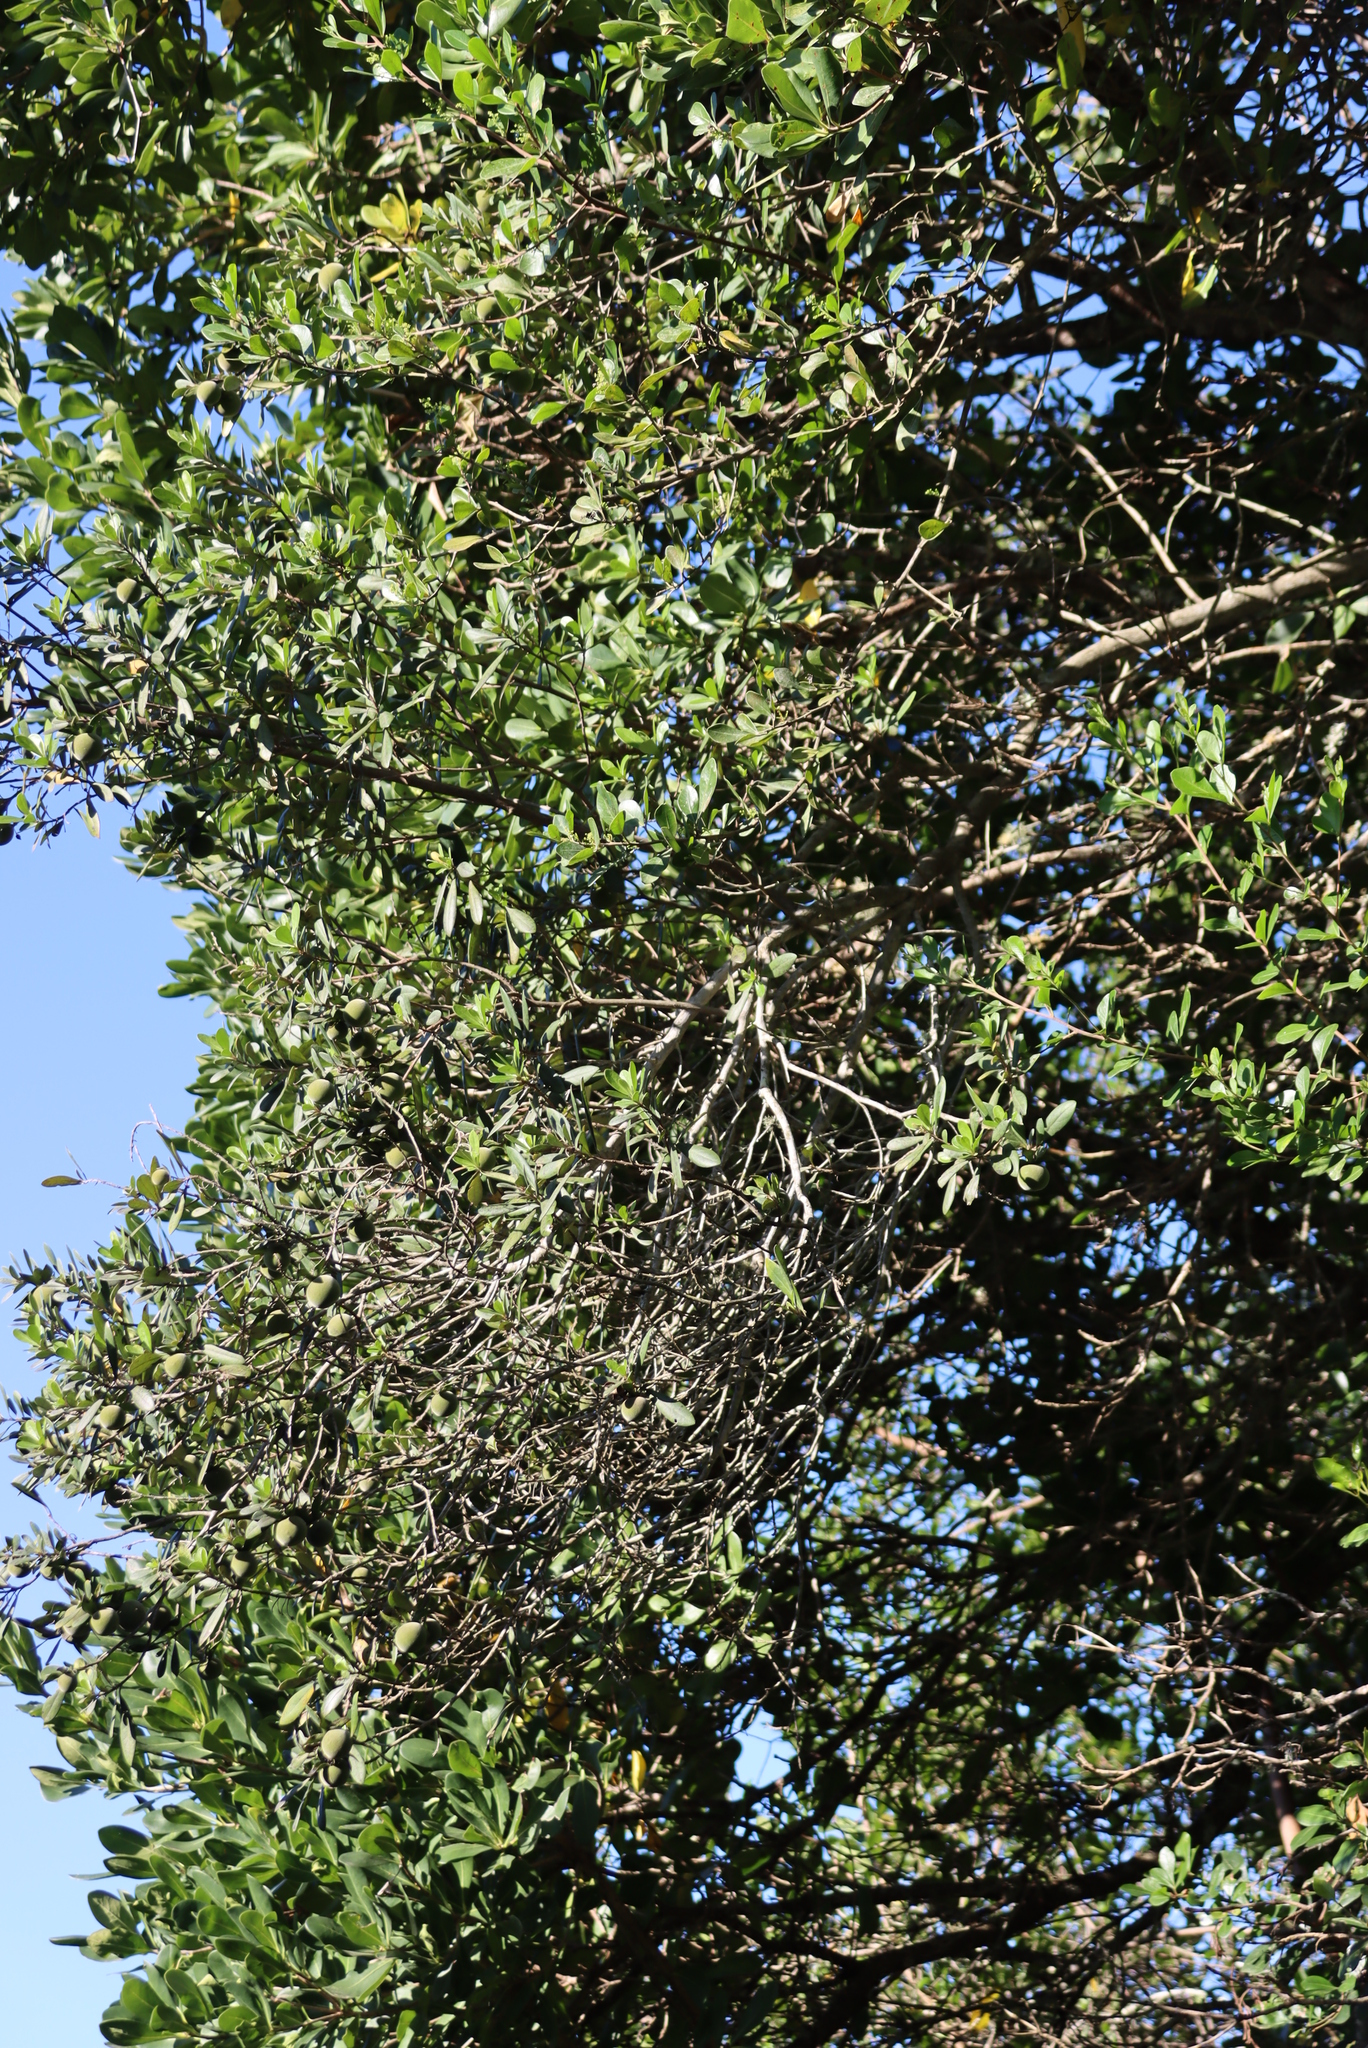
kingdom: Plantae
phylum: Tracheophyta
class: Magnoliopsida
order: Ericales
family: Ebenaceae
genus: Diospyros
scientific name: Diospyros dichrophylla
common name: Common star-apple
